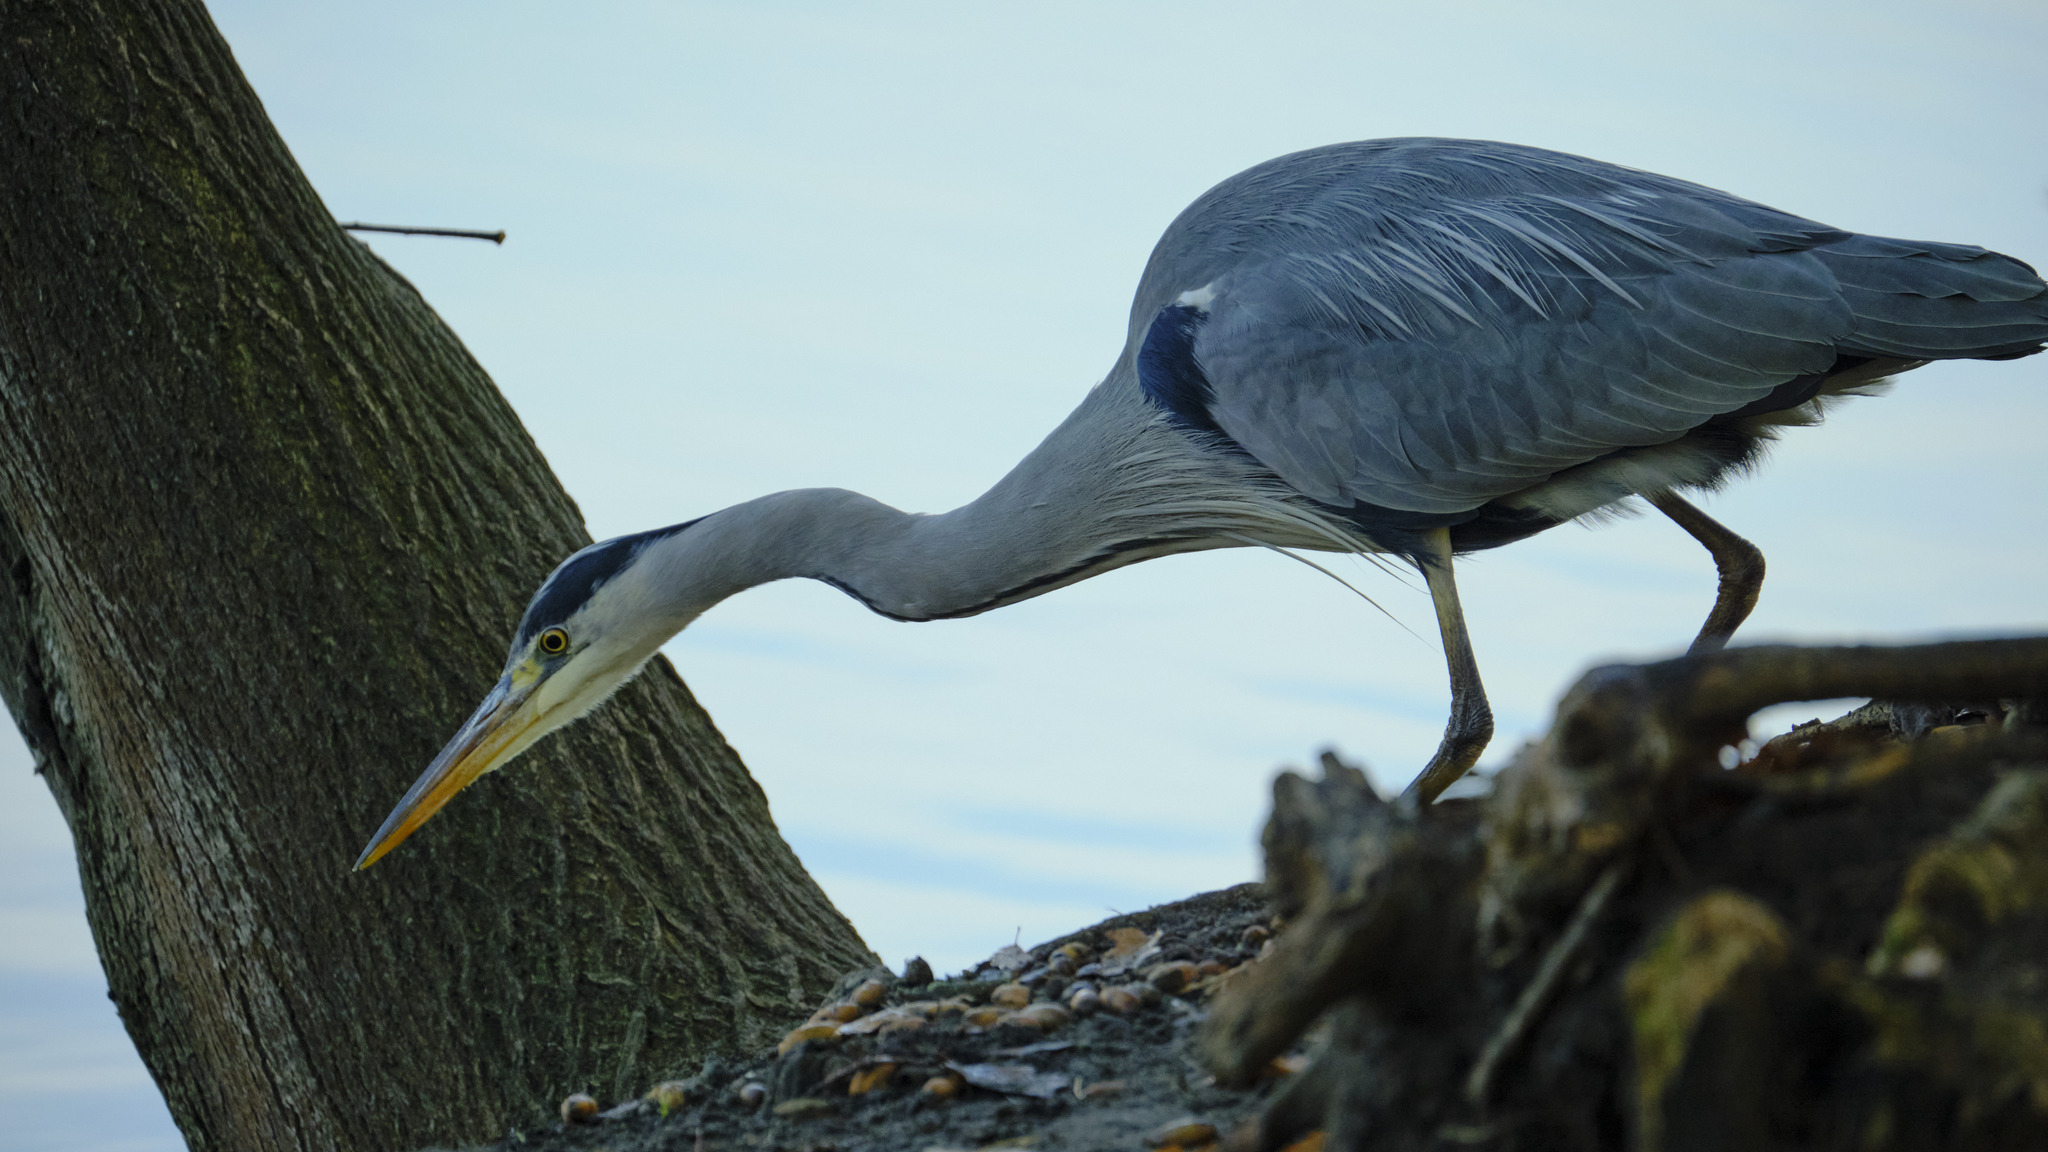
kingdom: Animalia
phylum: Chordata
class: Aves
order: Pelecaniformes
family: Ardeidae
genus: Ardea
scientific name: Ardea cinerea
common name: Grey heron
